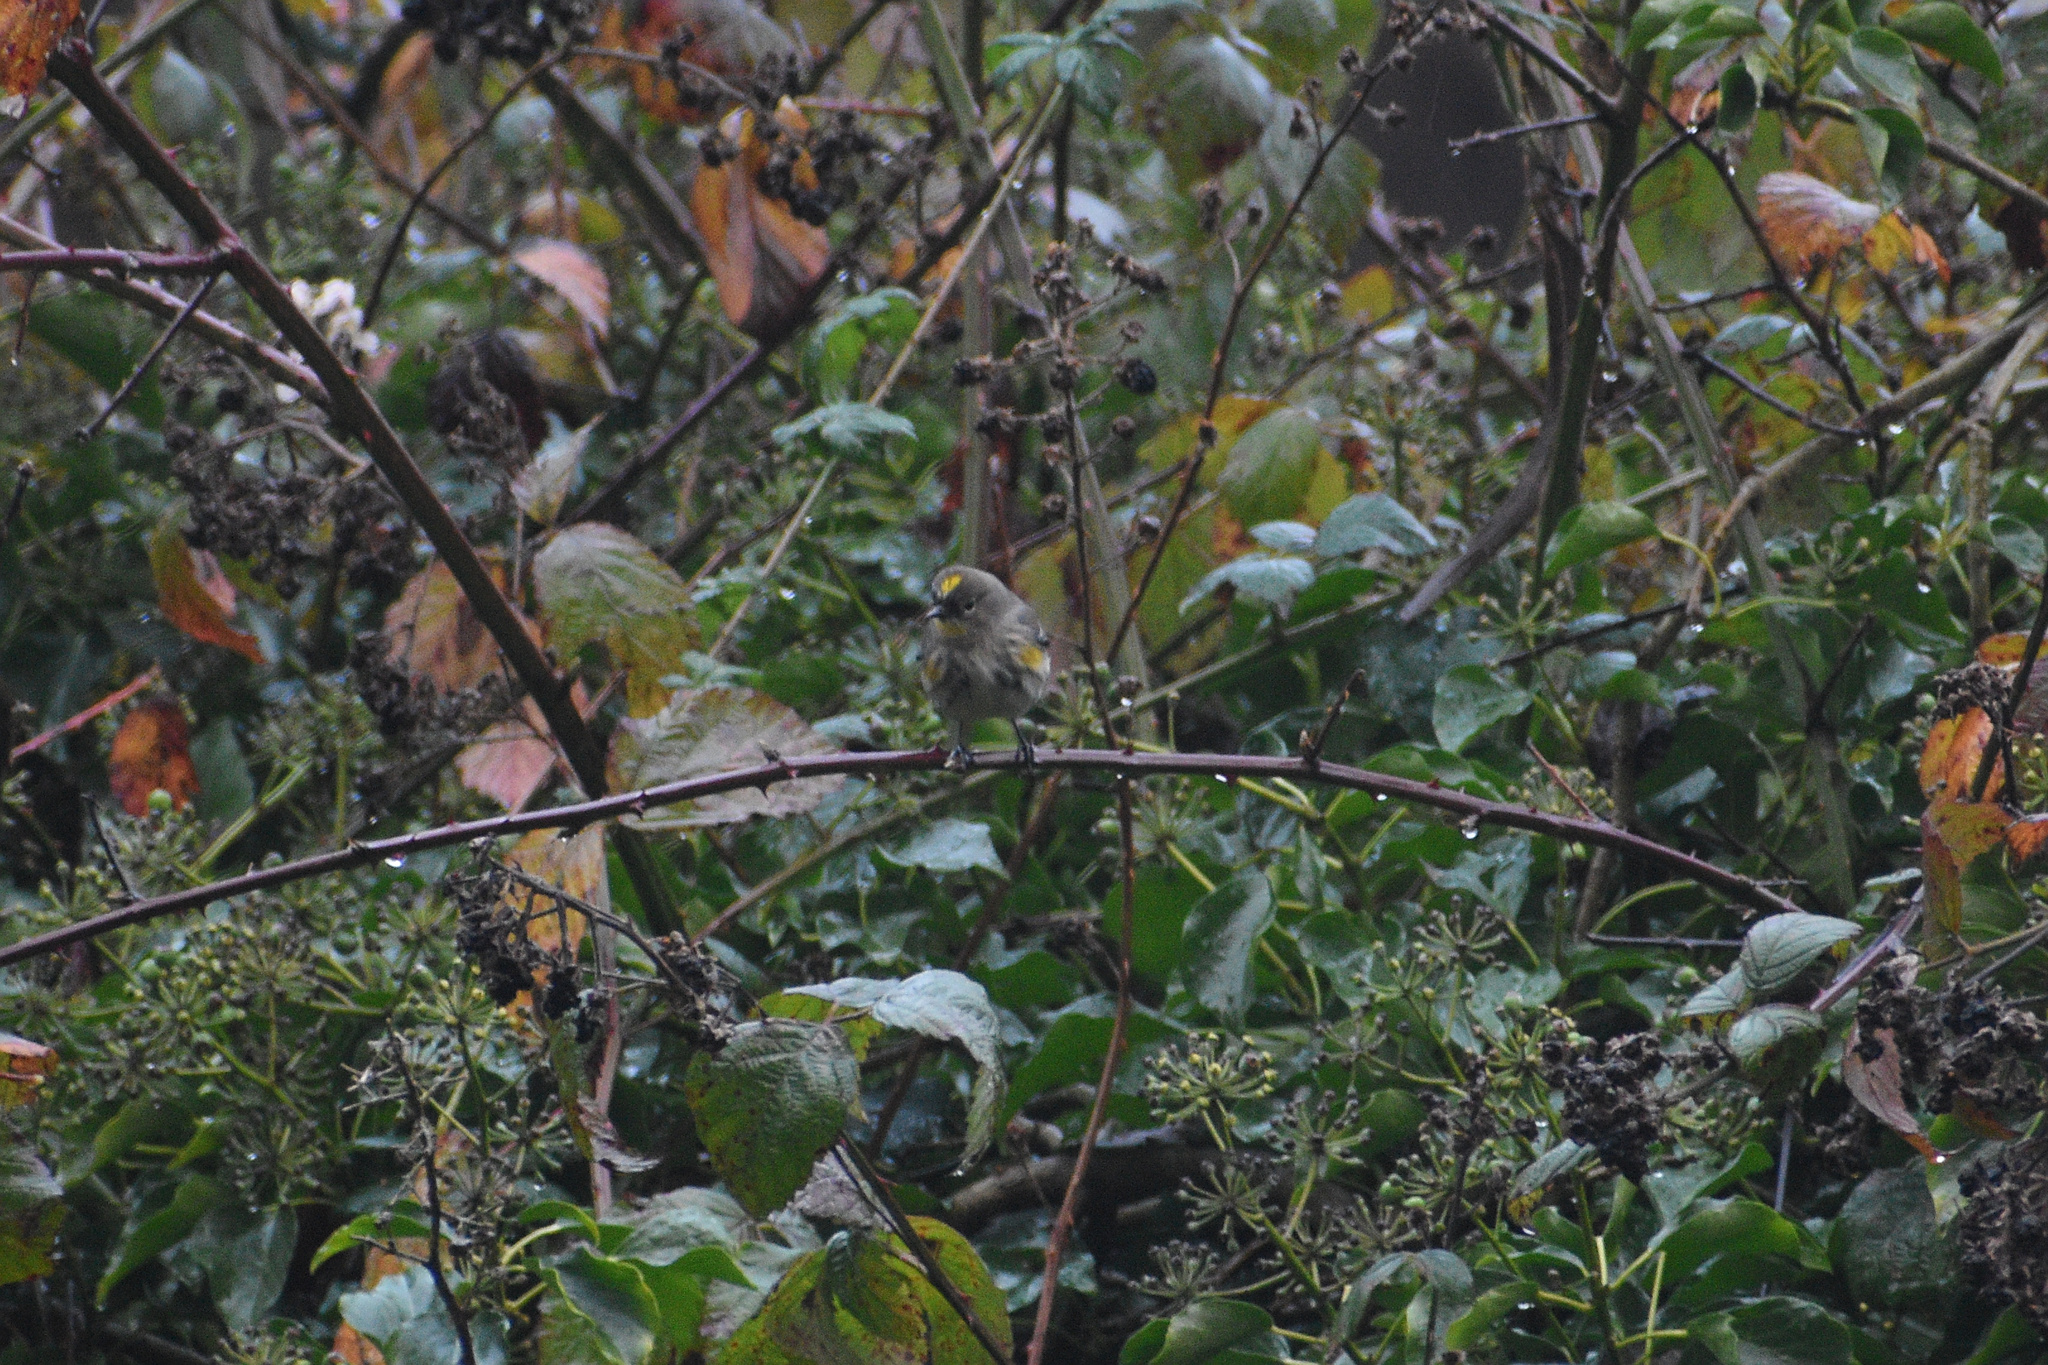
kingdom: Animalia
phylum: Chordata
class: Aves
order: Passeriformes
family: Parulidae
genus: Setophaga
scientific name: Setophaga coronata
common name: Myrtle warbler
